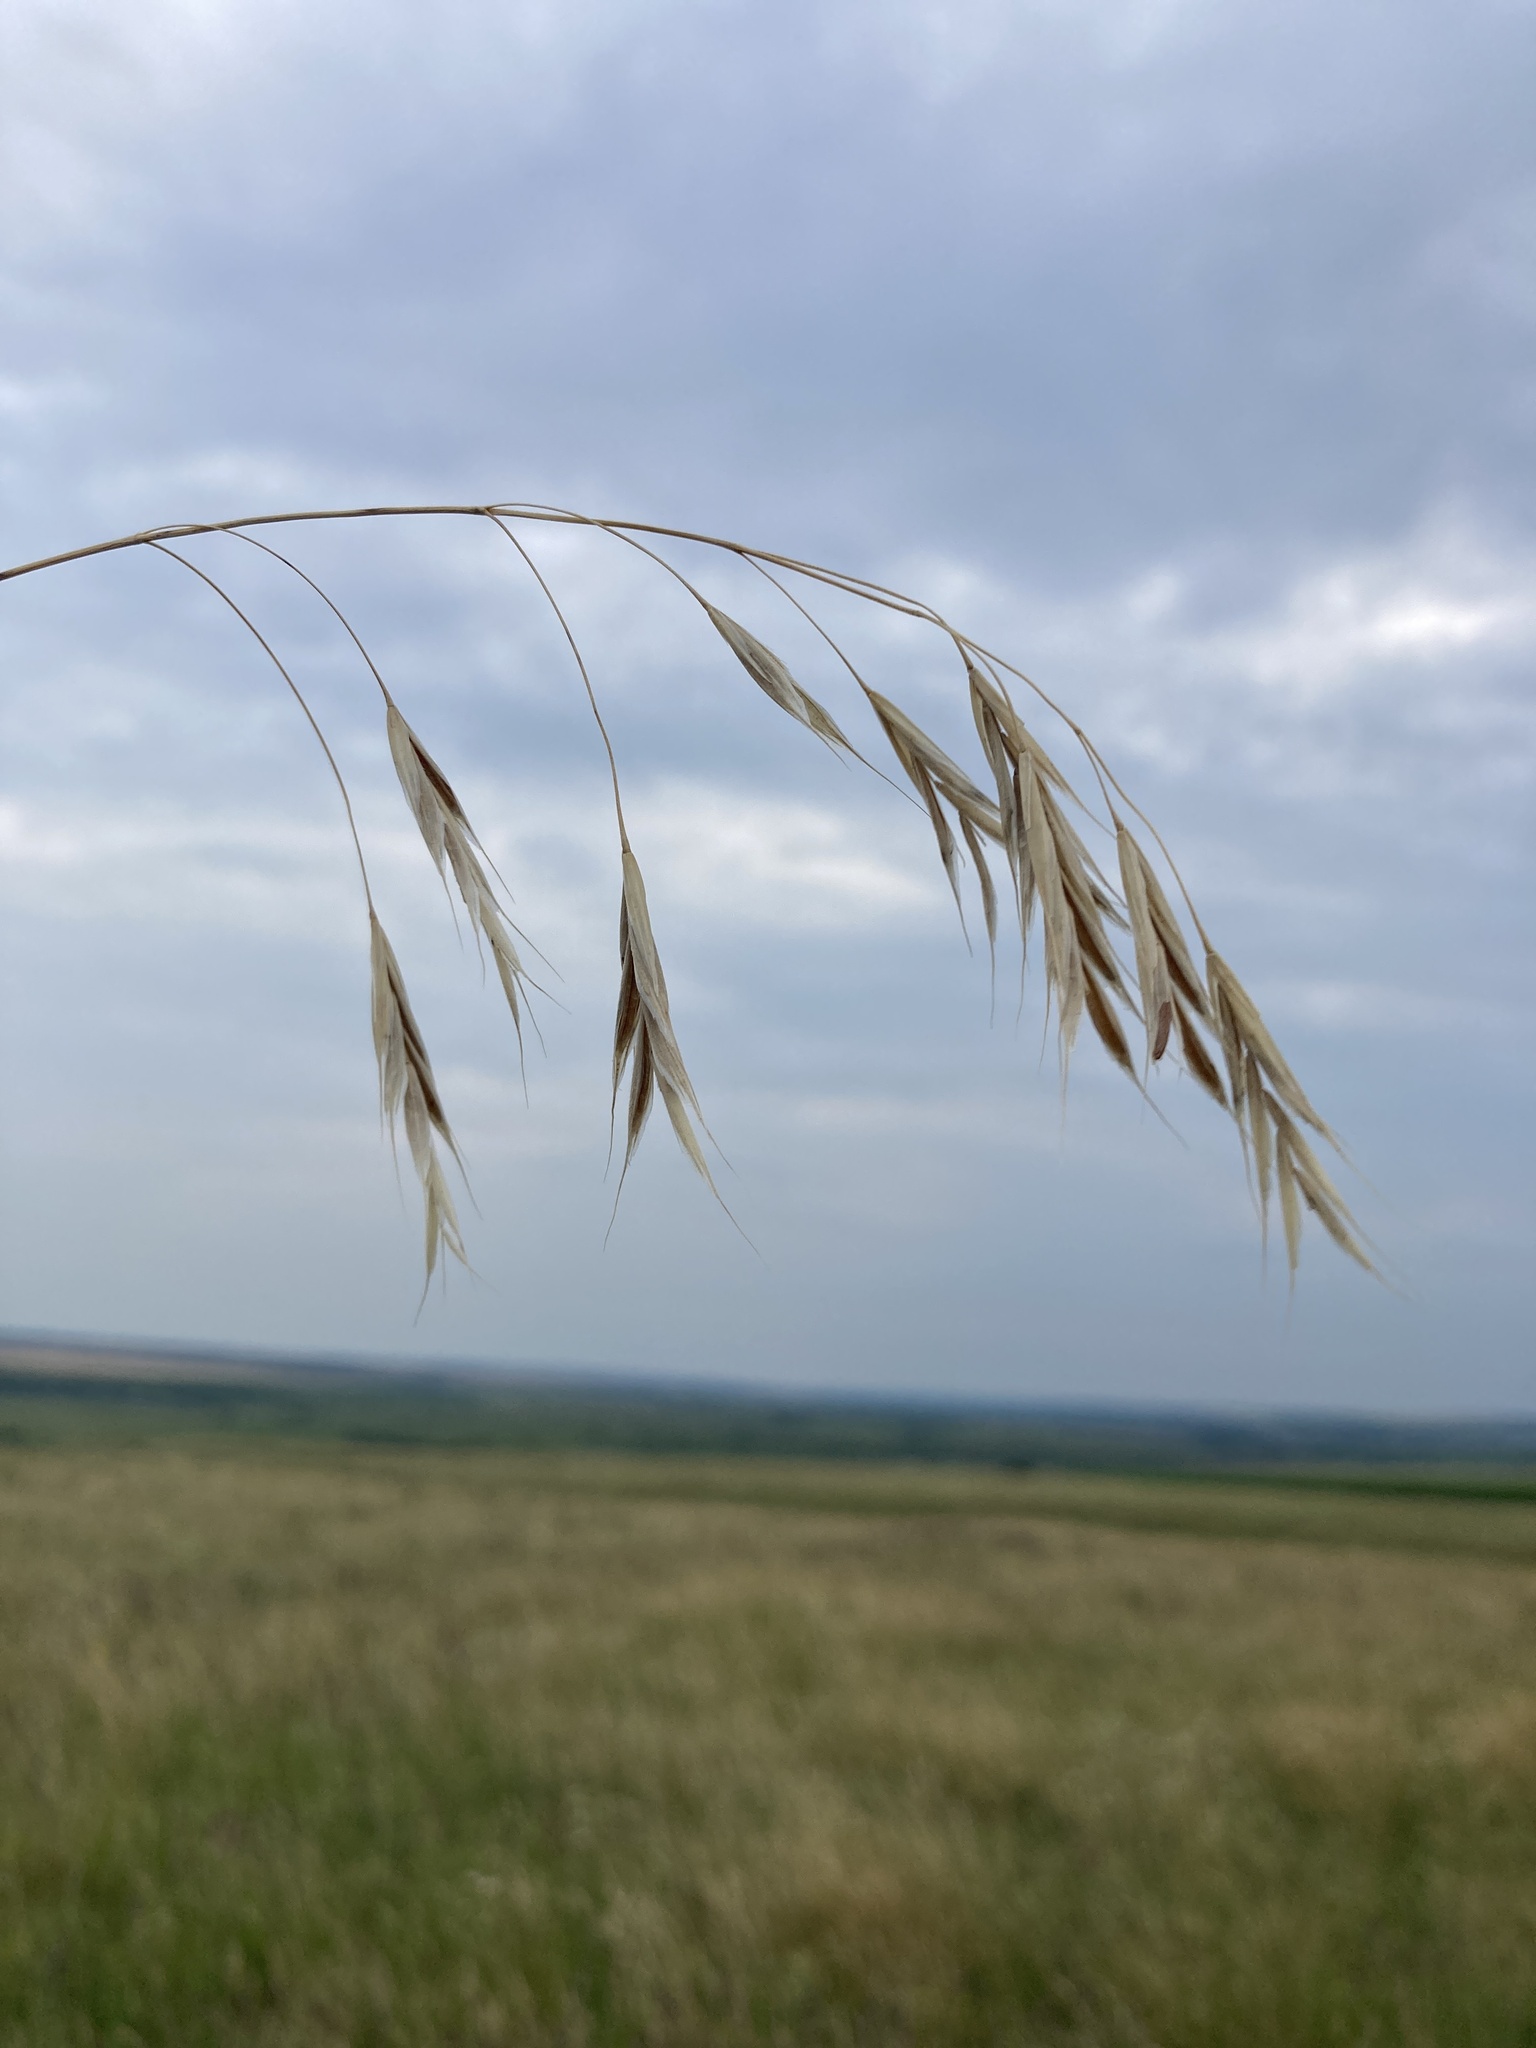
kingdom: Plantae
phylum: Tracheophyta
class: Liliopsida
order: Poales
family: Poaceae
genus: Bromus
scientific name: Bromus riparius
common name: Meadow brome
